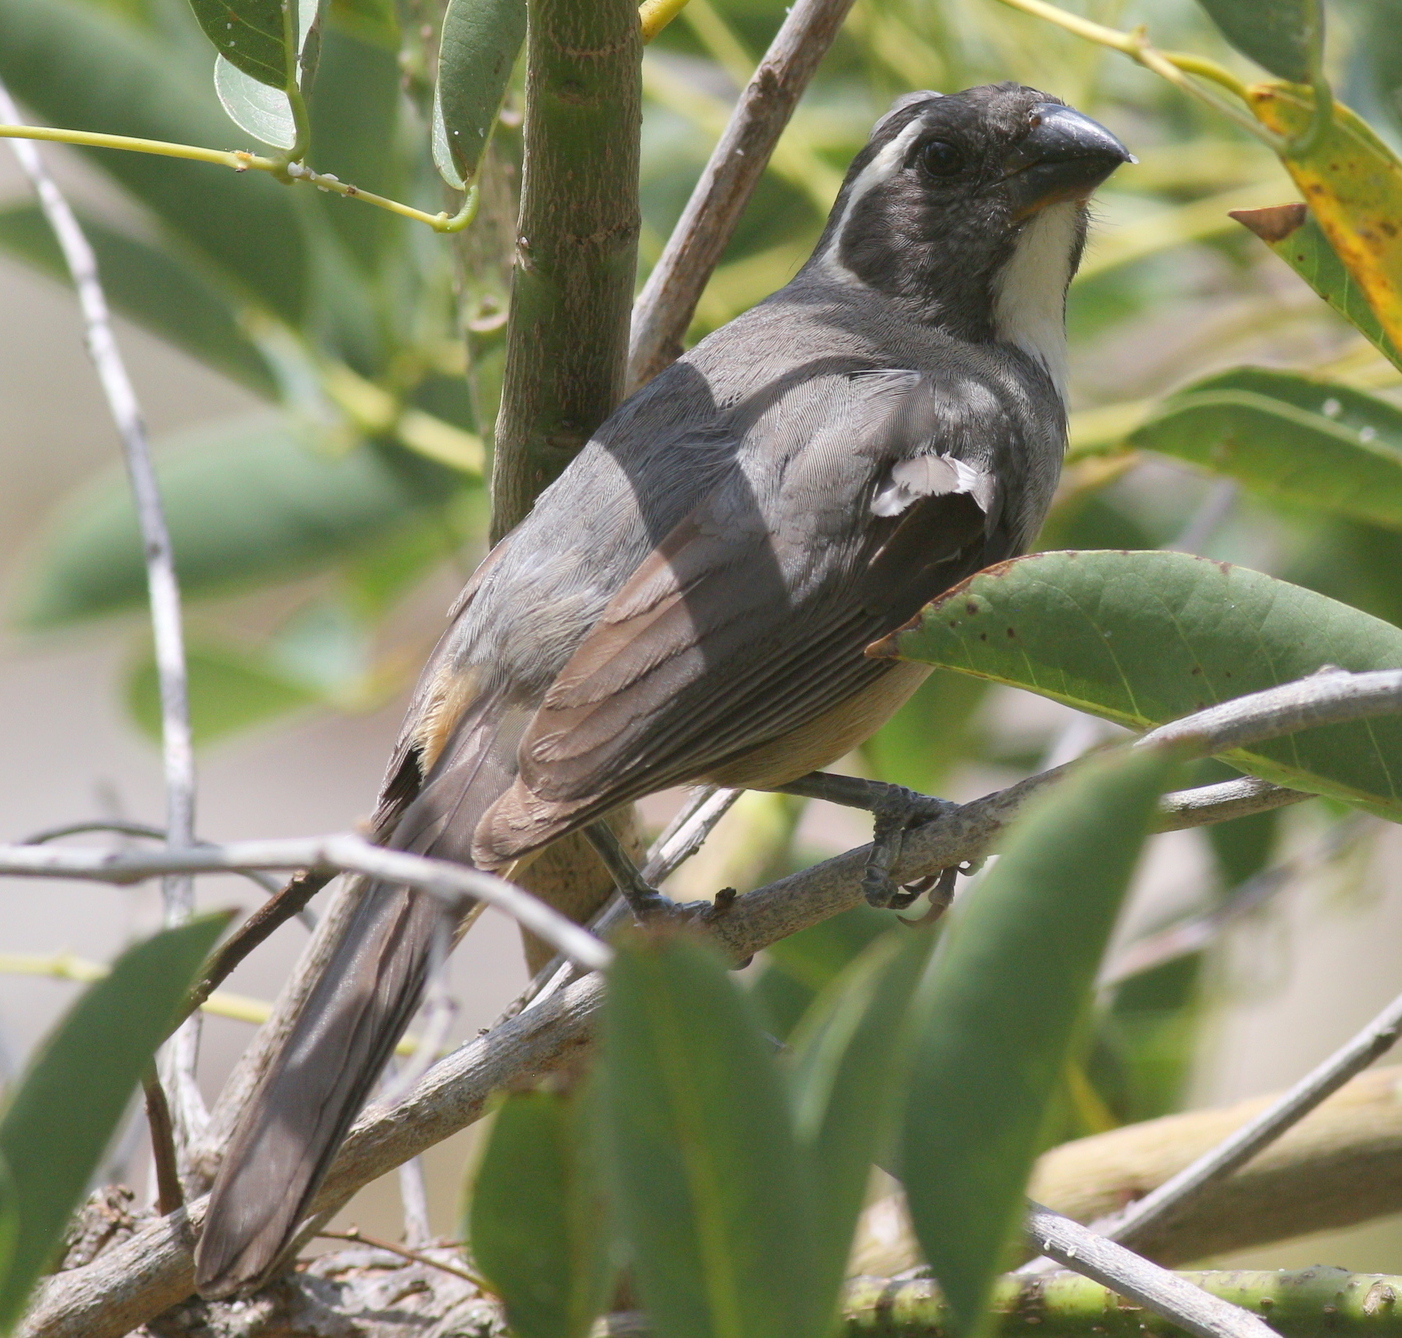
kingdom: Animalia
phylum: Chordata
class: Aves
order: Passeriformes
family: Thraupidae
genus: Saltator
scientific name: Saltator aurantiirostris
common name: Golden-billed saltator
